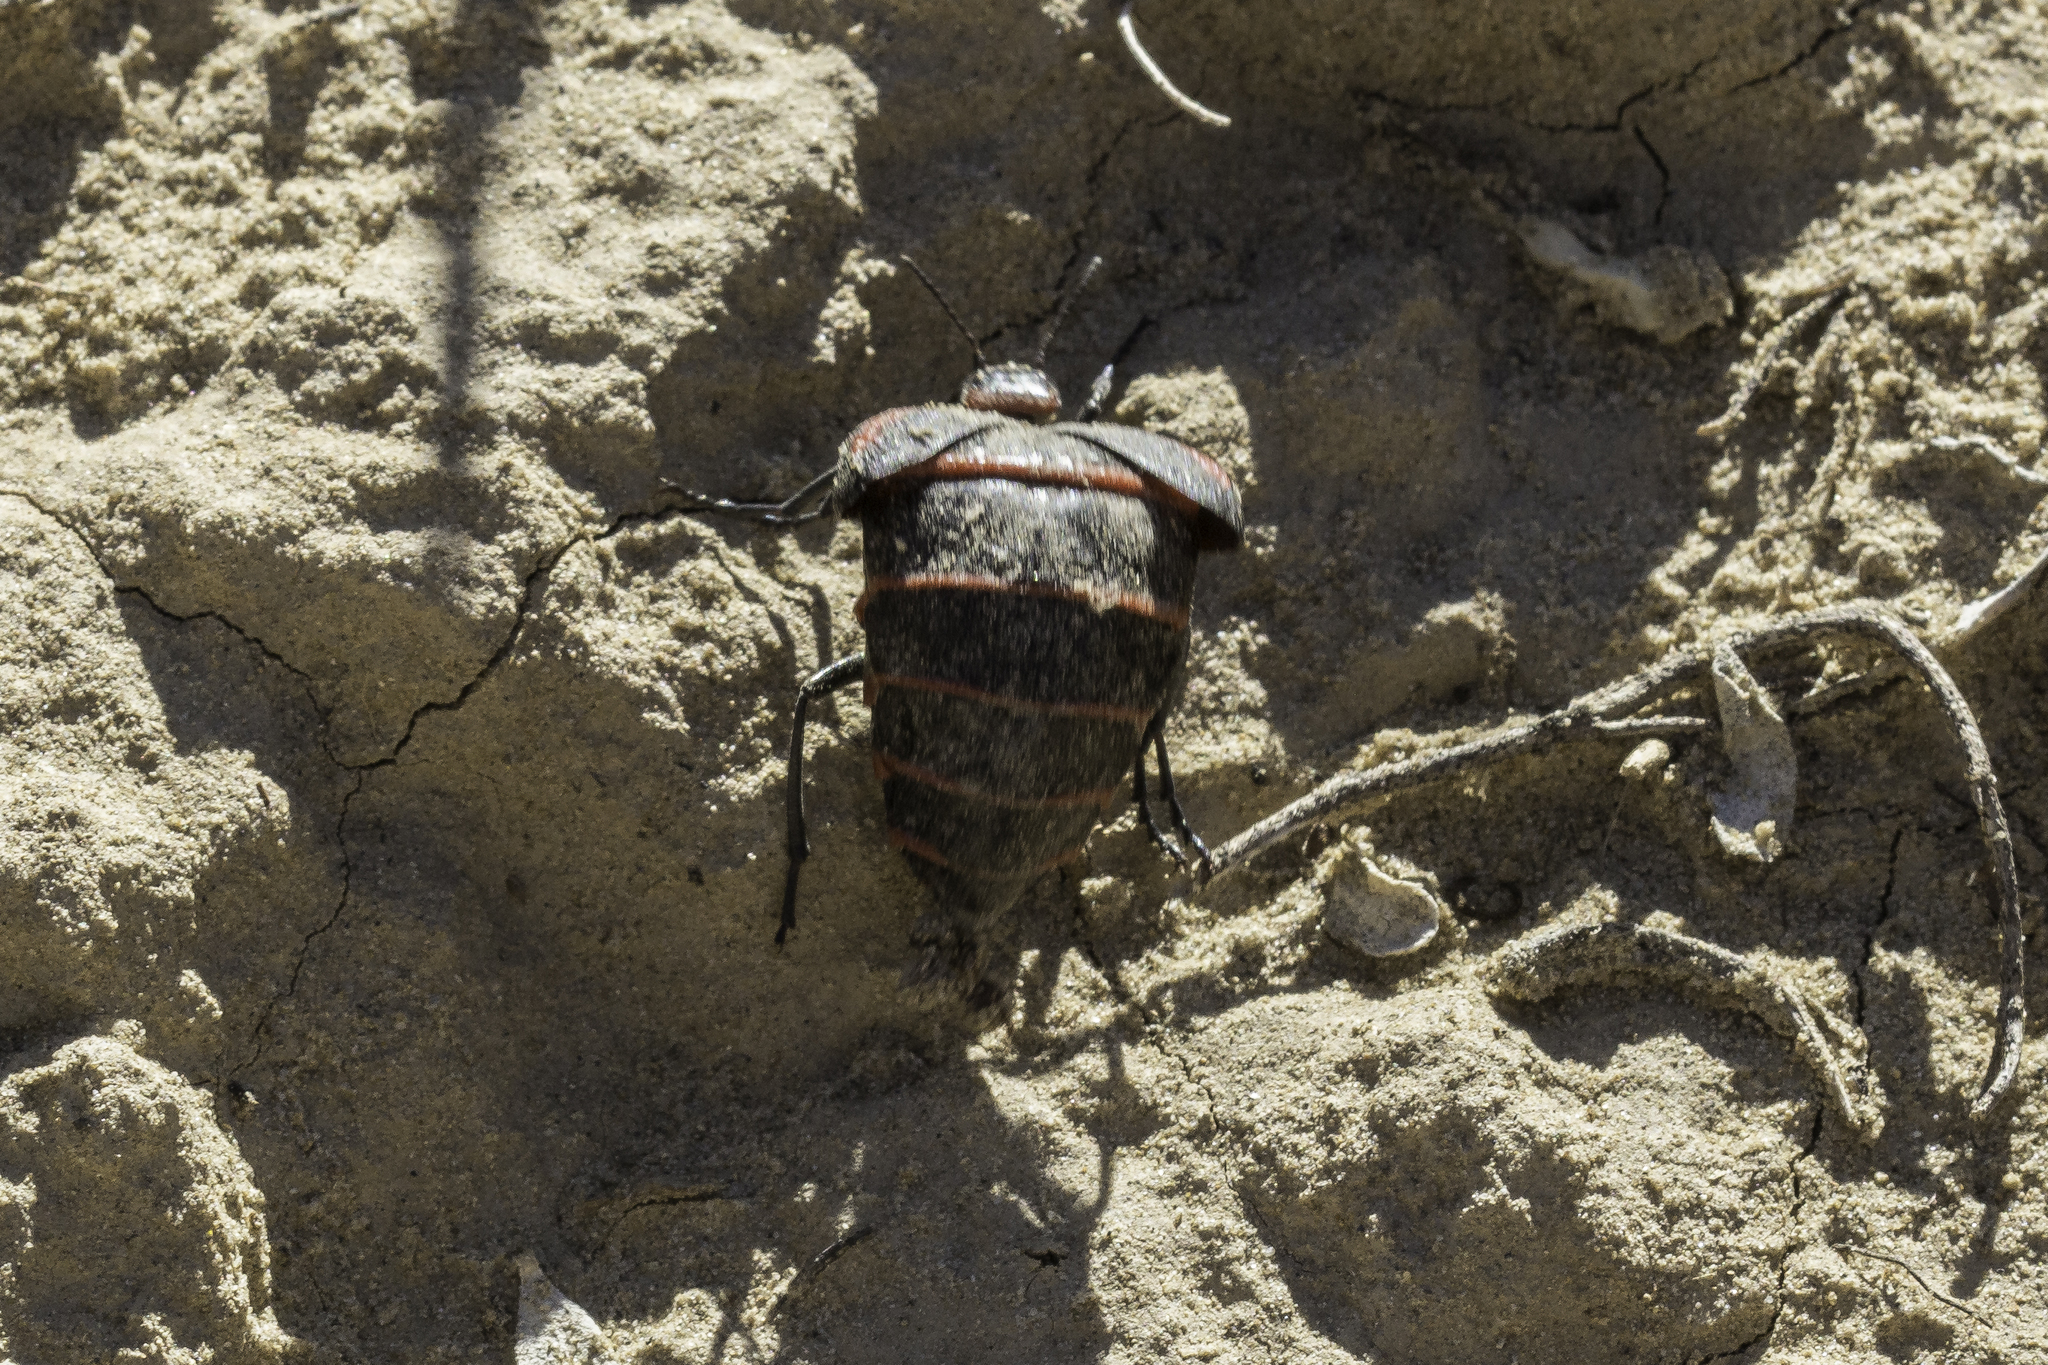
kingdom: Animalia
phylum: Arthropoda
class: Insecta
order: Coleoptera
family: Meloidae
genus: Megetra
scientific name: Megetra vittata
